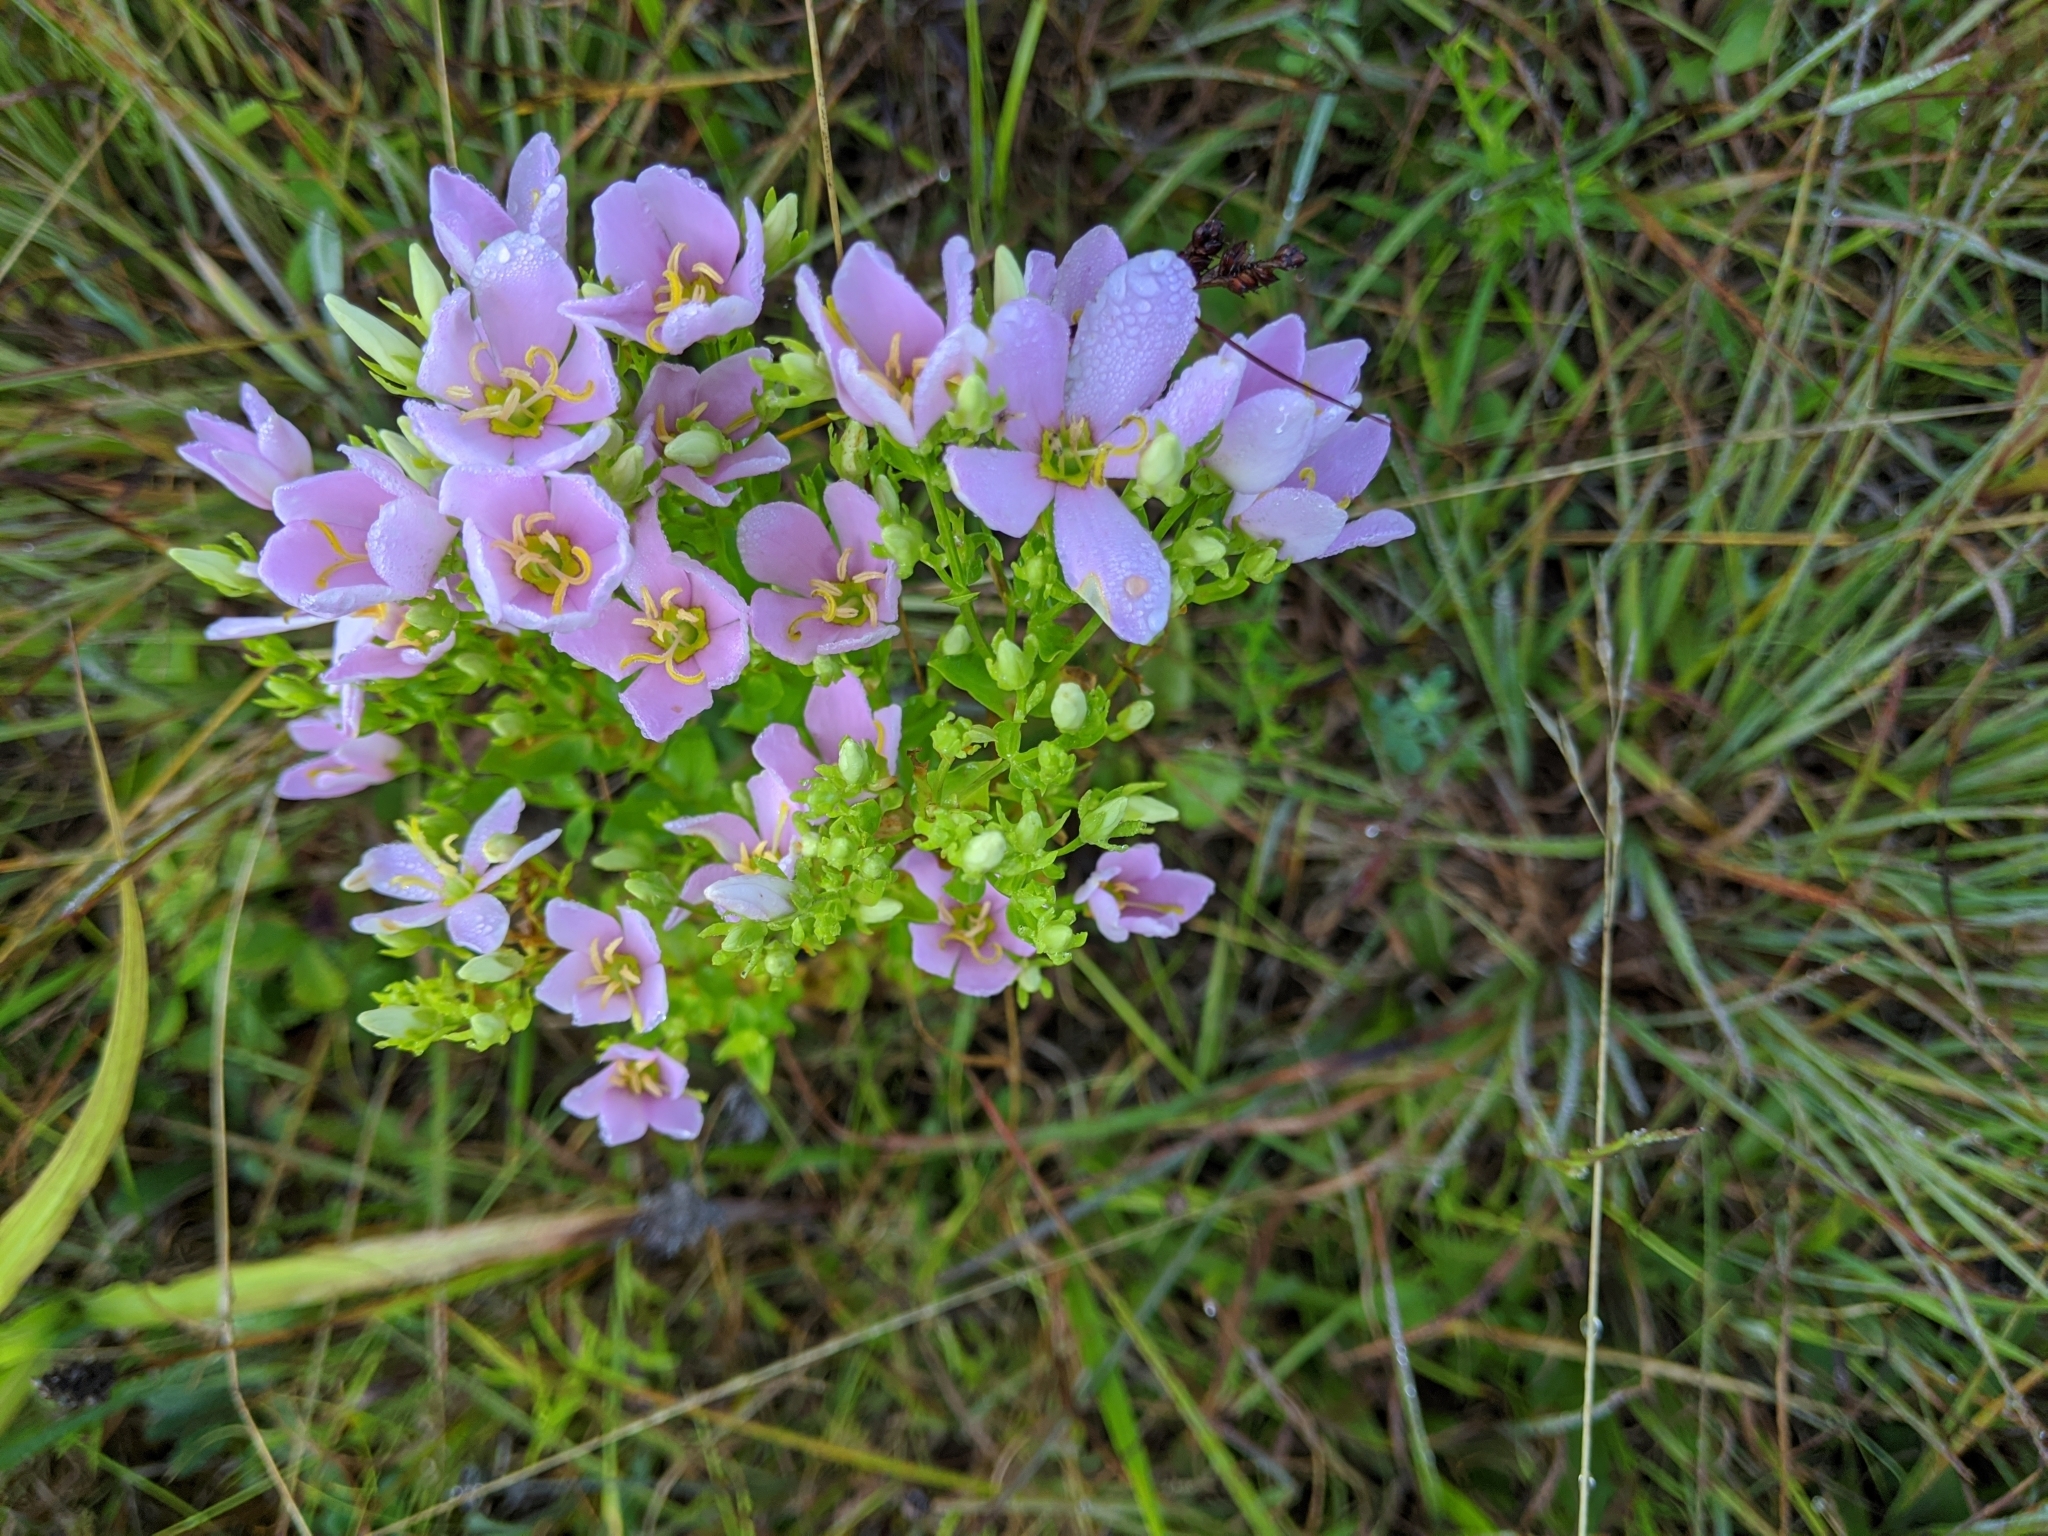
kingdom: Plantae
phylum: Tracheophyta
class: Magnoliopsida
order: Gentianales
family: Gentianaceae
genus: Sabatia
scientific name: Sabatia angularis
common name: Rose-pink
